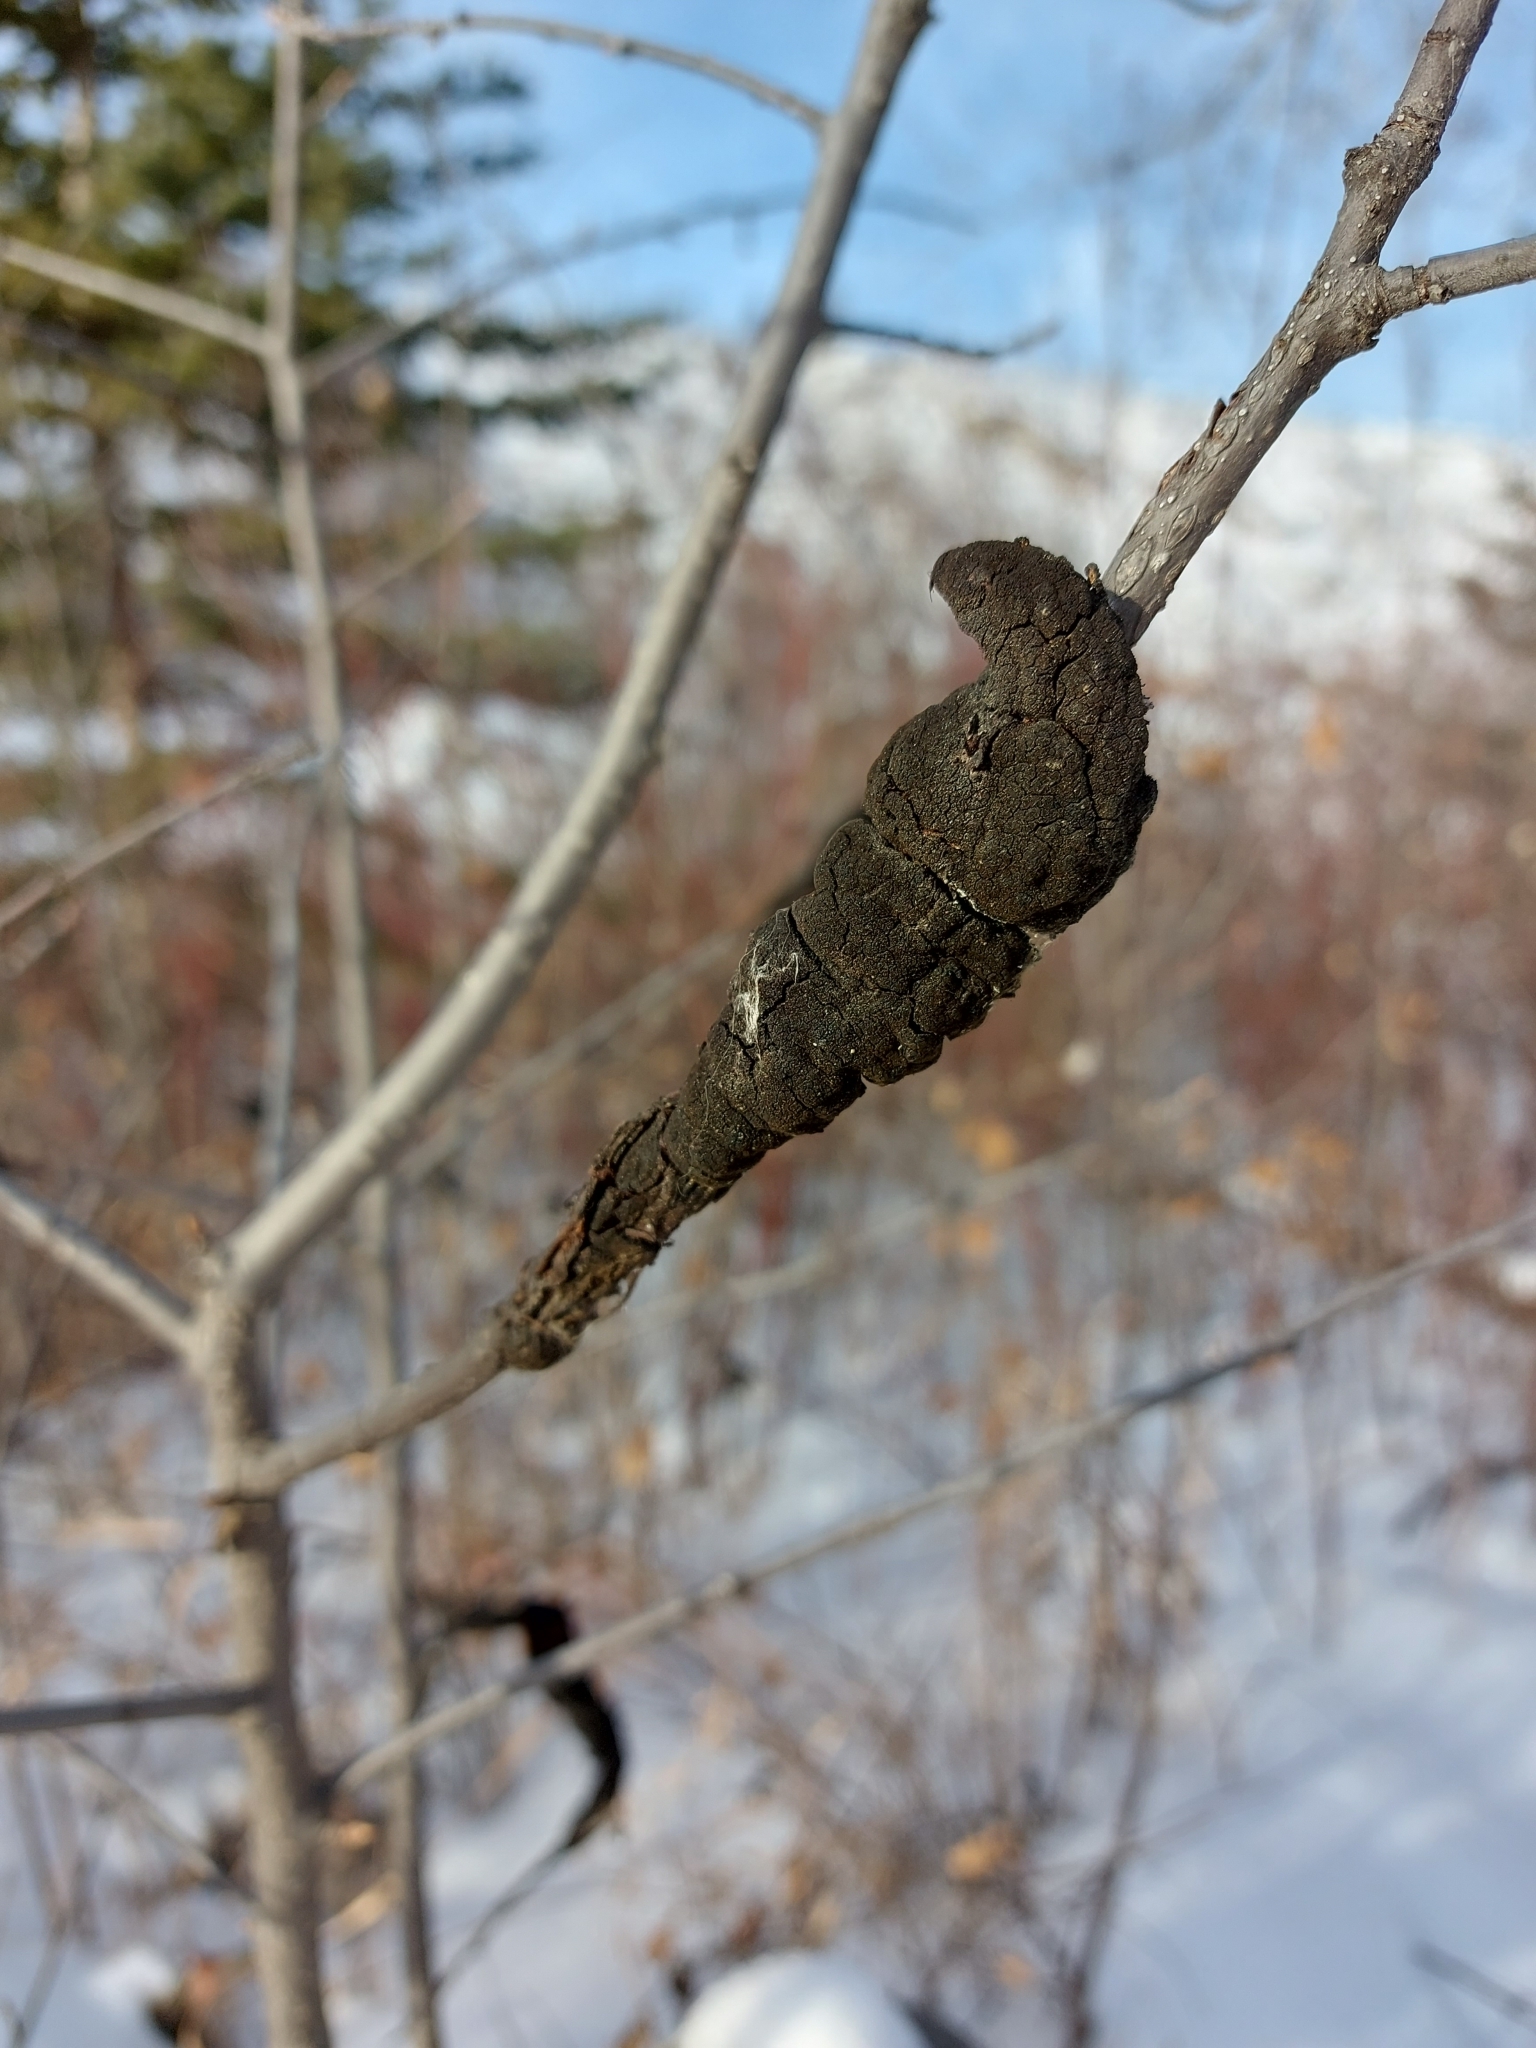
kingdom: Fungi
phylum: Ascomycota
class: Dothideomycetes
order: Venturiales
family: Venturiaceae
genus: Apiosporina
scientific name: Apiosporina morbosa
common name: Black knot
